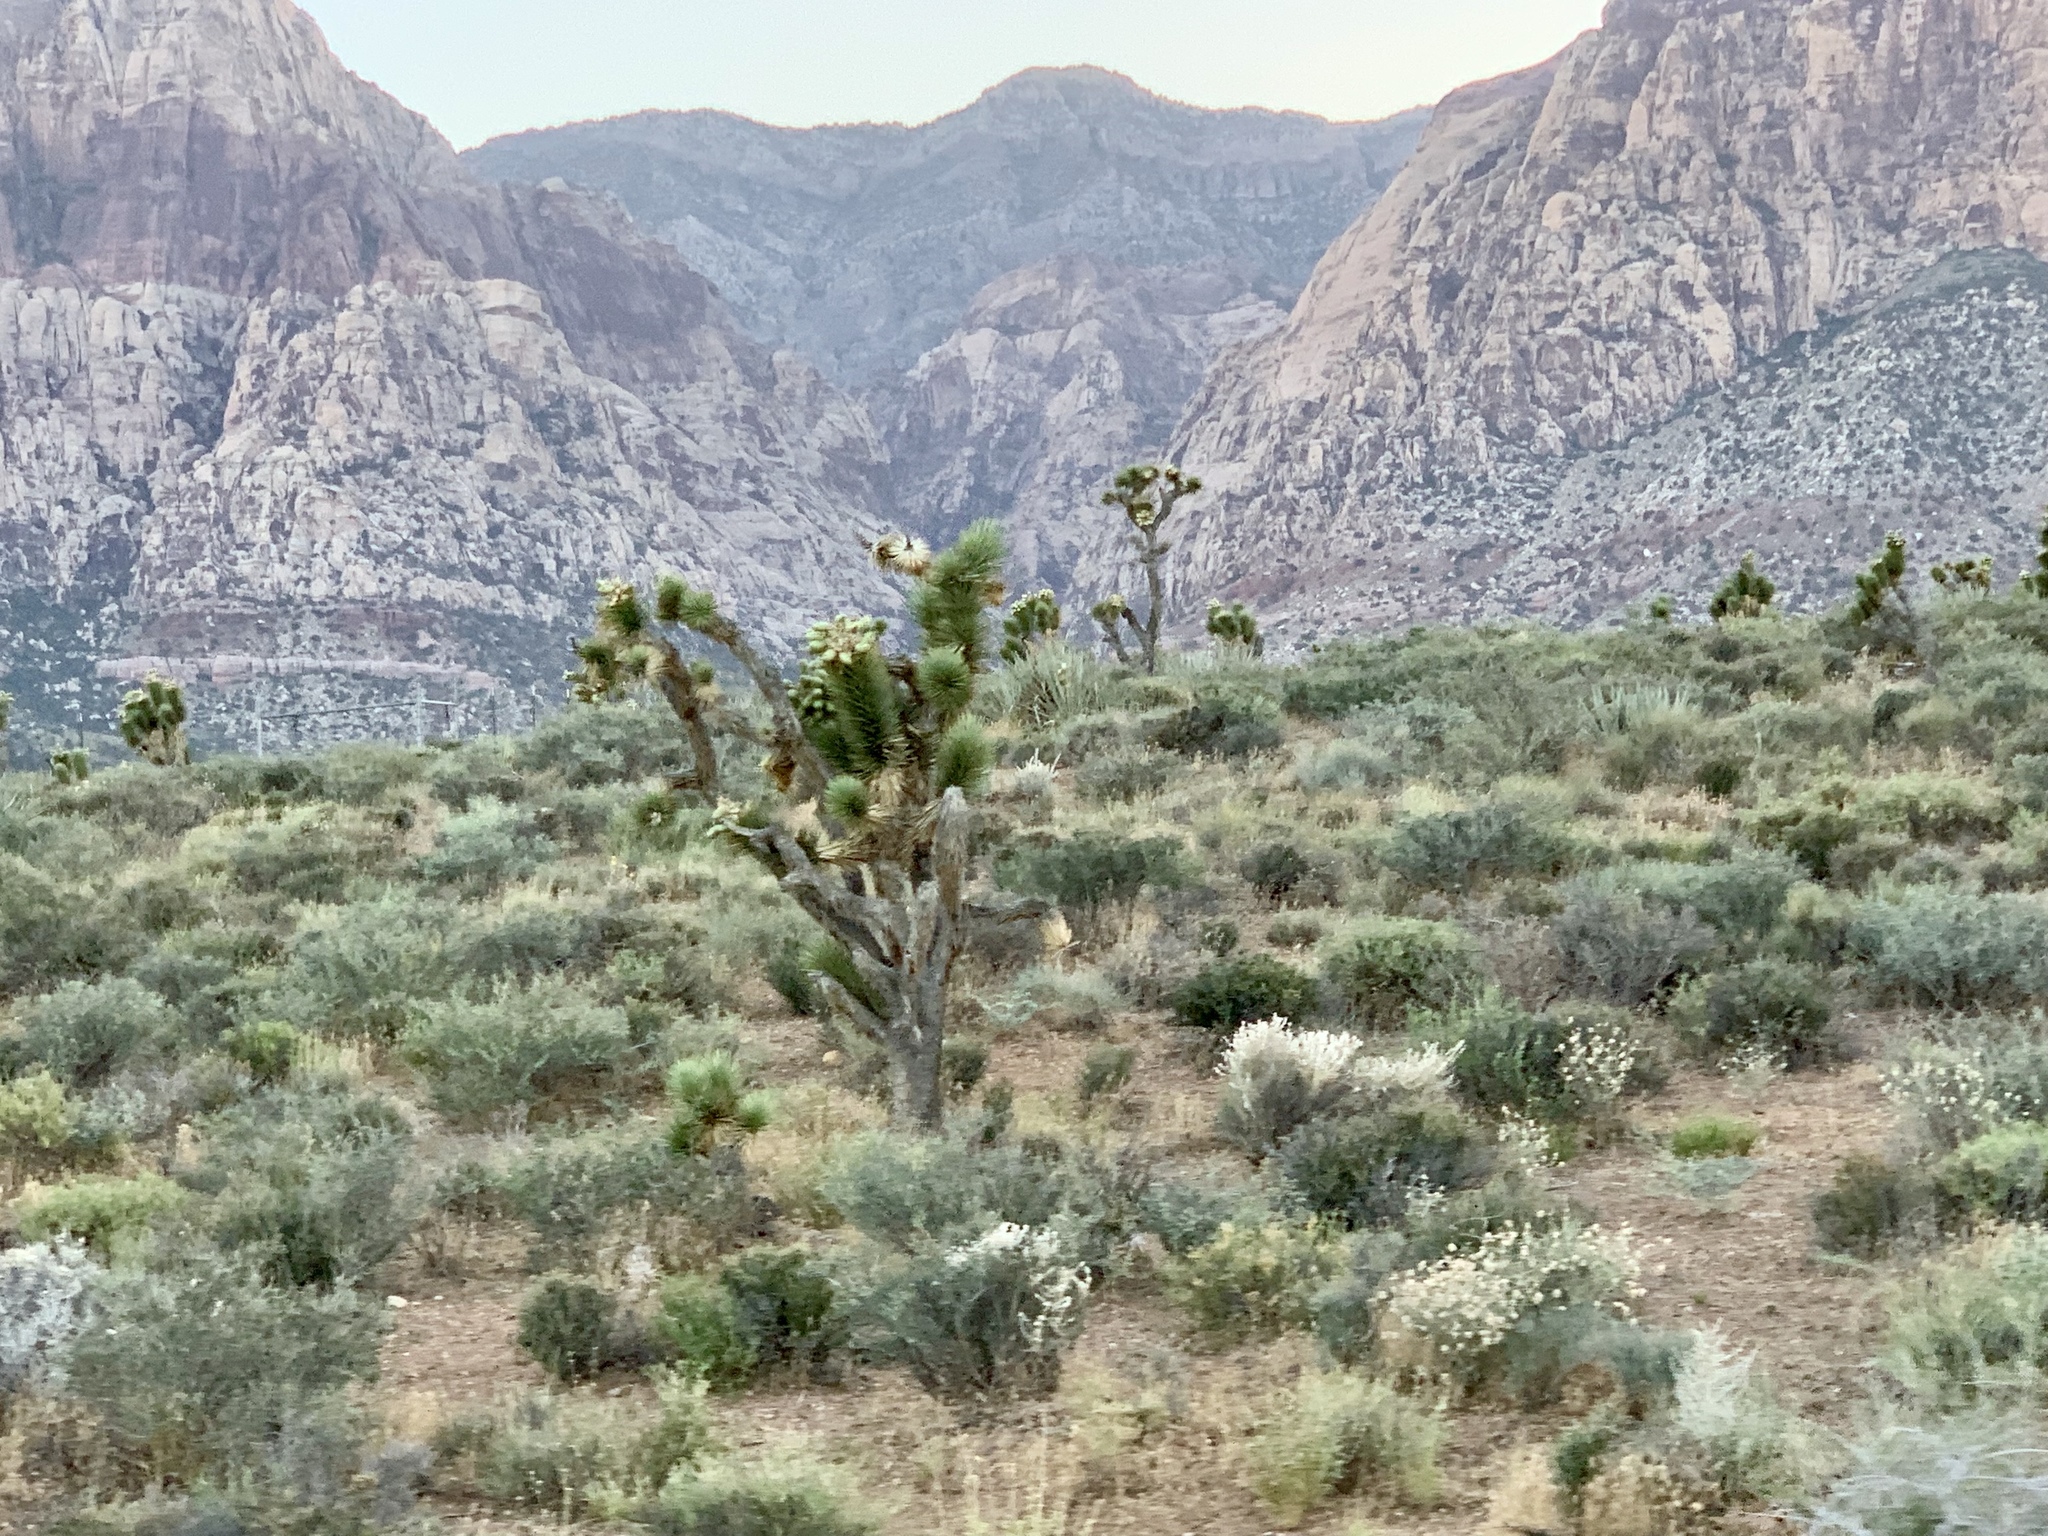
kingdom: Plantae
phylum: Tracheophyta
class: Liliopsida
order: Asparagales
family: Asparagaceae
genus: Yucca
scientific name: Yucca brevifolia
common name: Joshua tree
